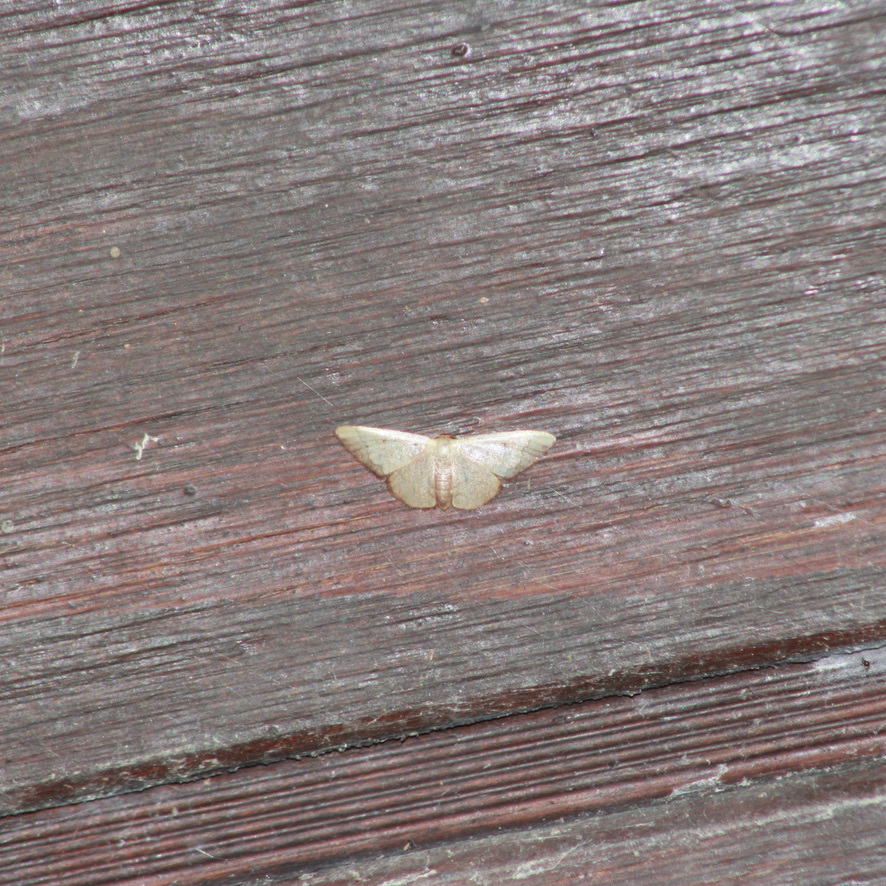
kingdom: Animalia
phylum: Arthropoda
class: Insecta
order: Lepidoptera
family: Geometridae
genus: Idaea
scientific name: Idaea rufulata
